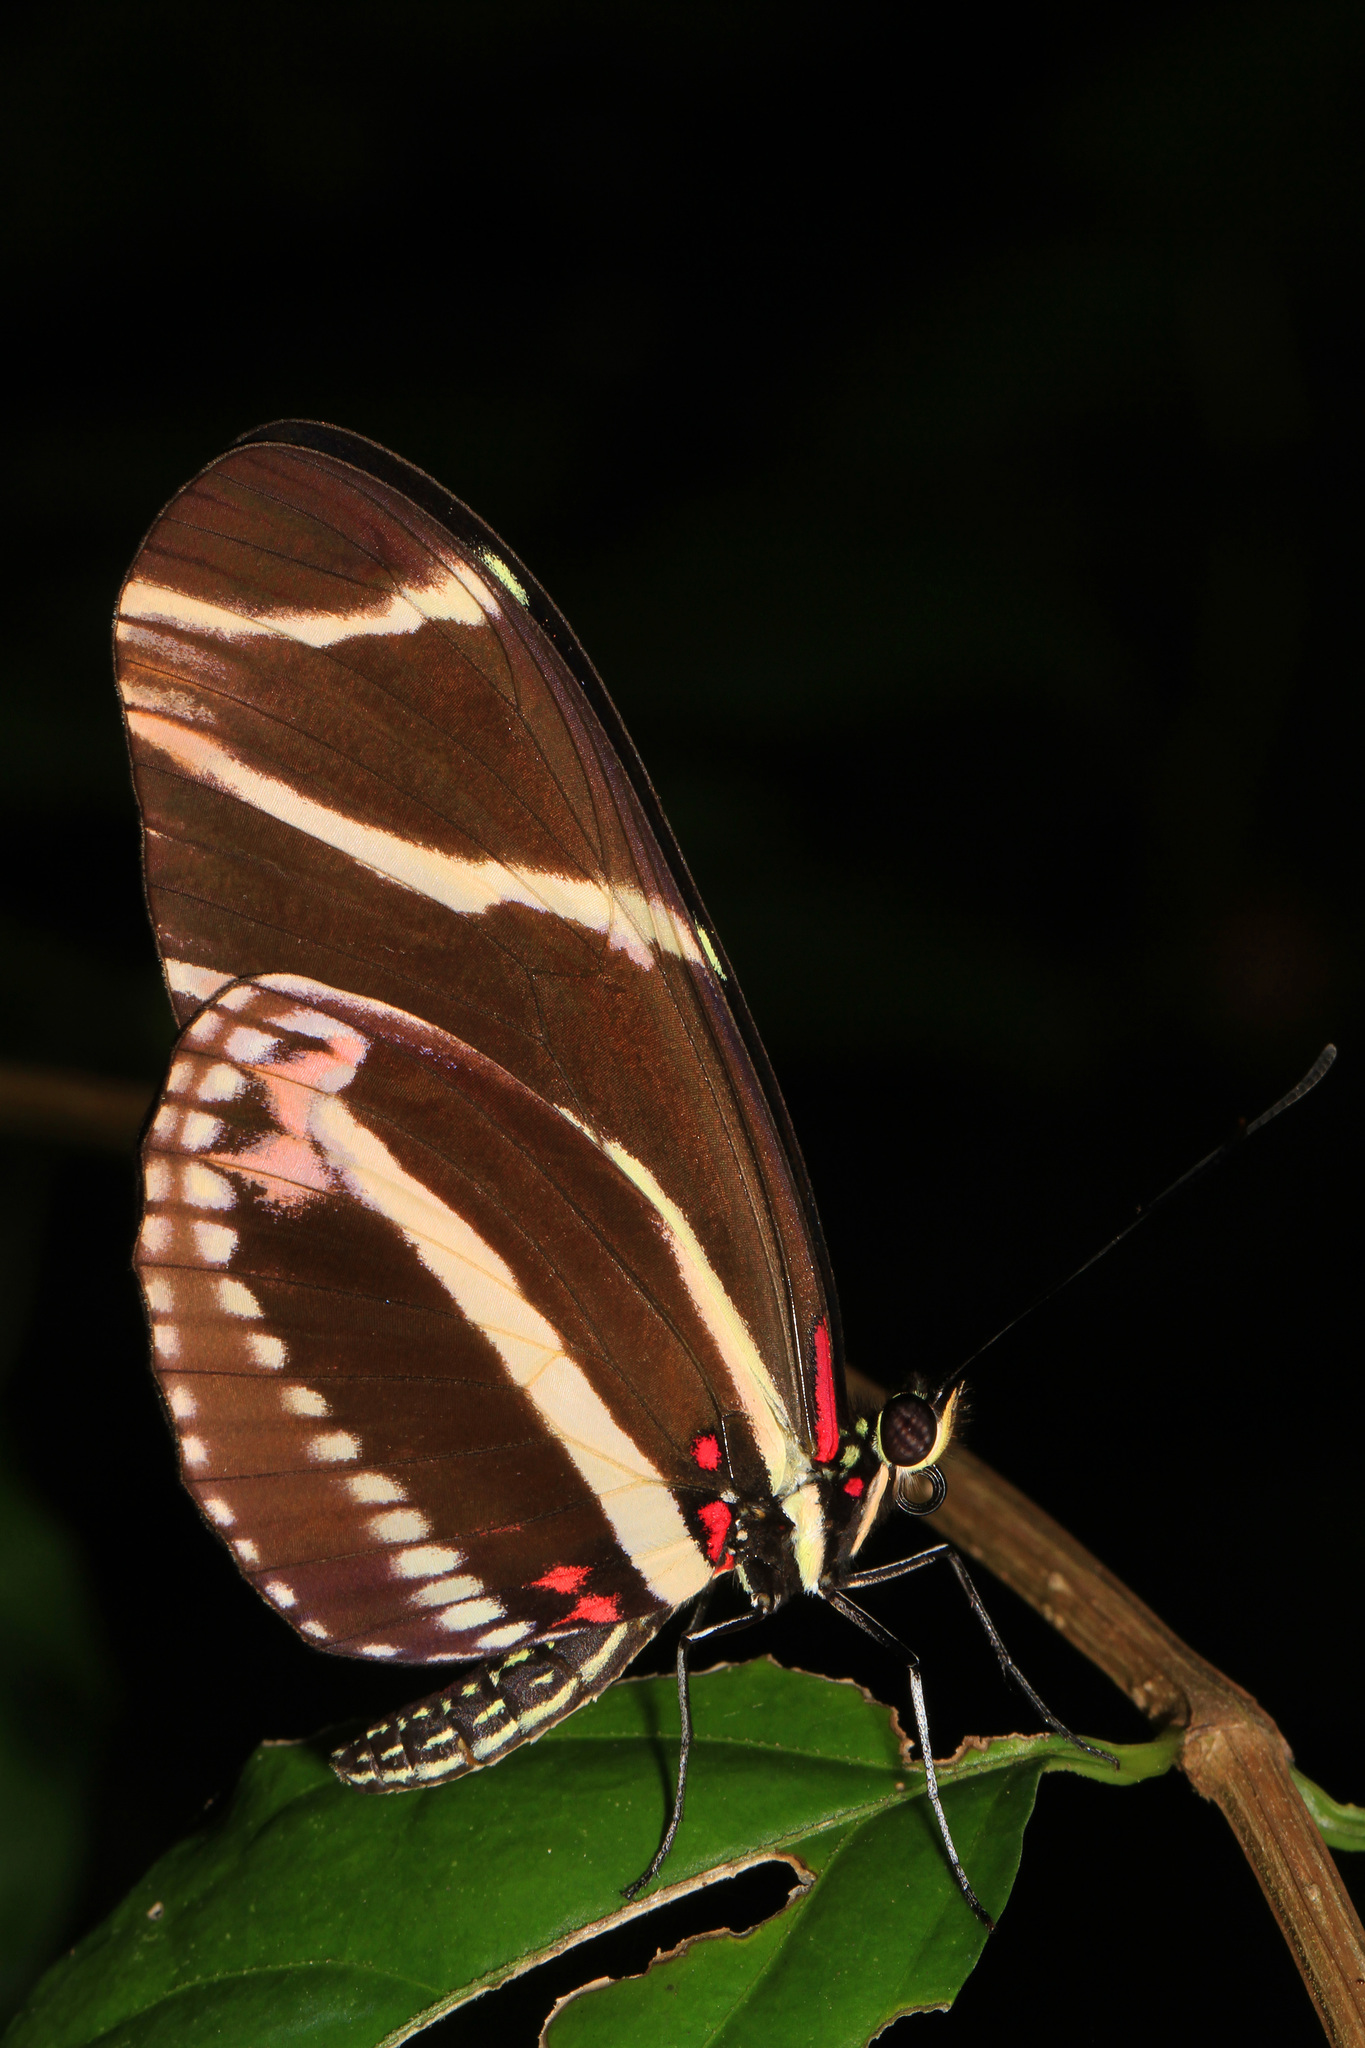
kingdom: Animalia
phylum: Arthropoda
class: Insecta
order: Lepidoptera
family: Nymphalidae
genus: Heliconius
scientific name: Heliconius charithonia
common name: Zebra long wing
